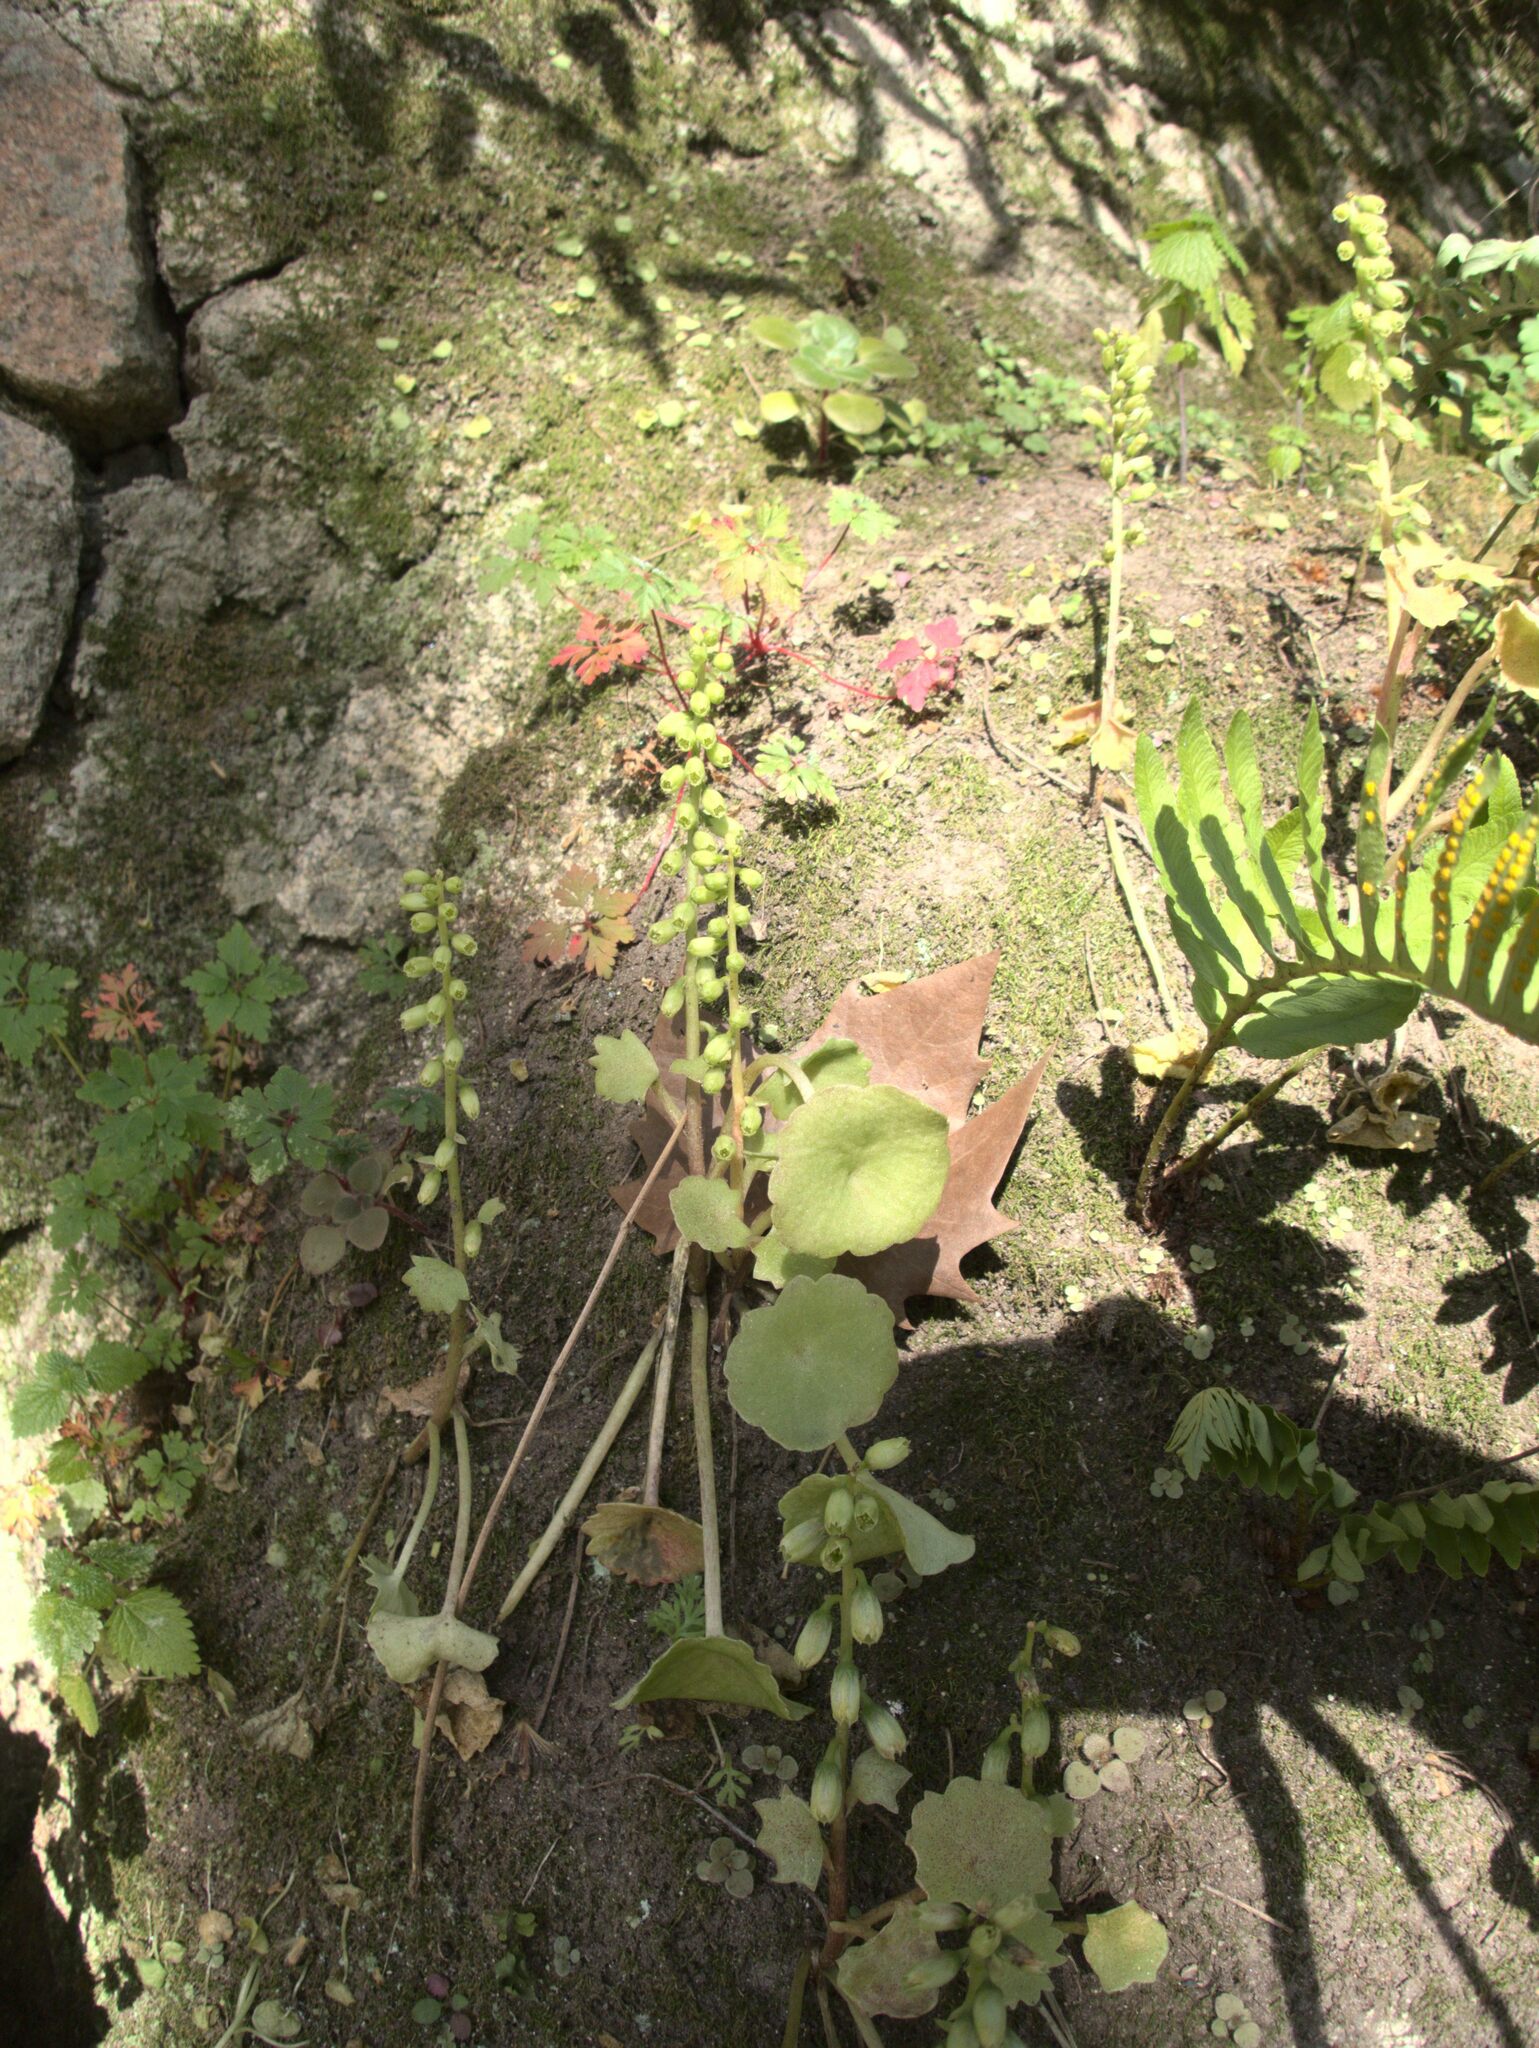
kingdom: Plantae
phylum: Tracheophyta
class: Magnoliopsida
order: Saxifragales
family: Crassulaceae
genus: Umbilicus
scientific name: Umbilicus rupestris
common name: Navelwort
